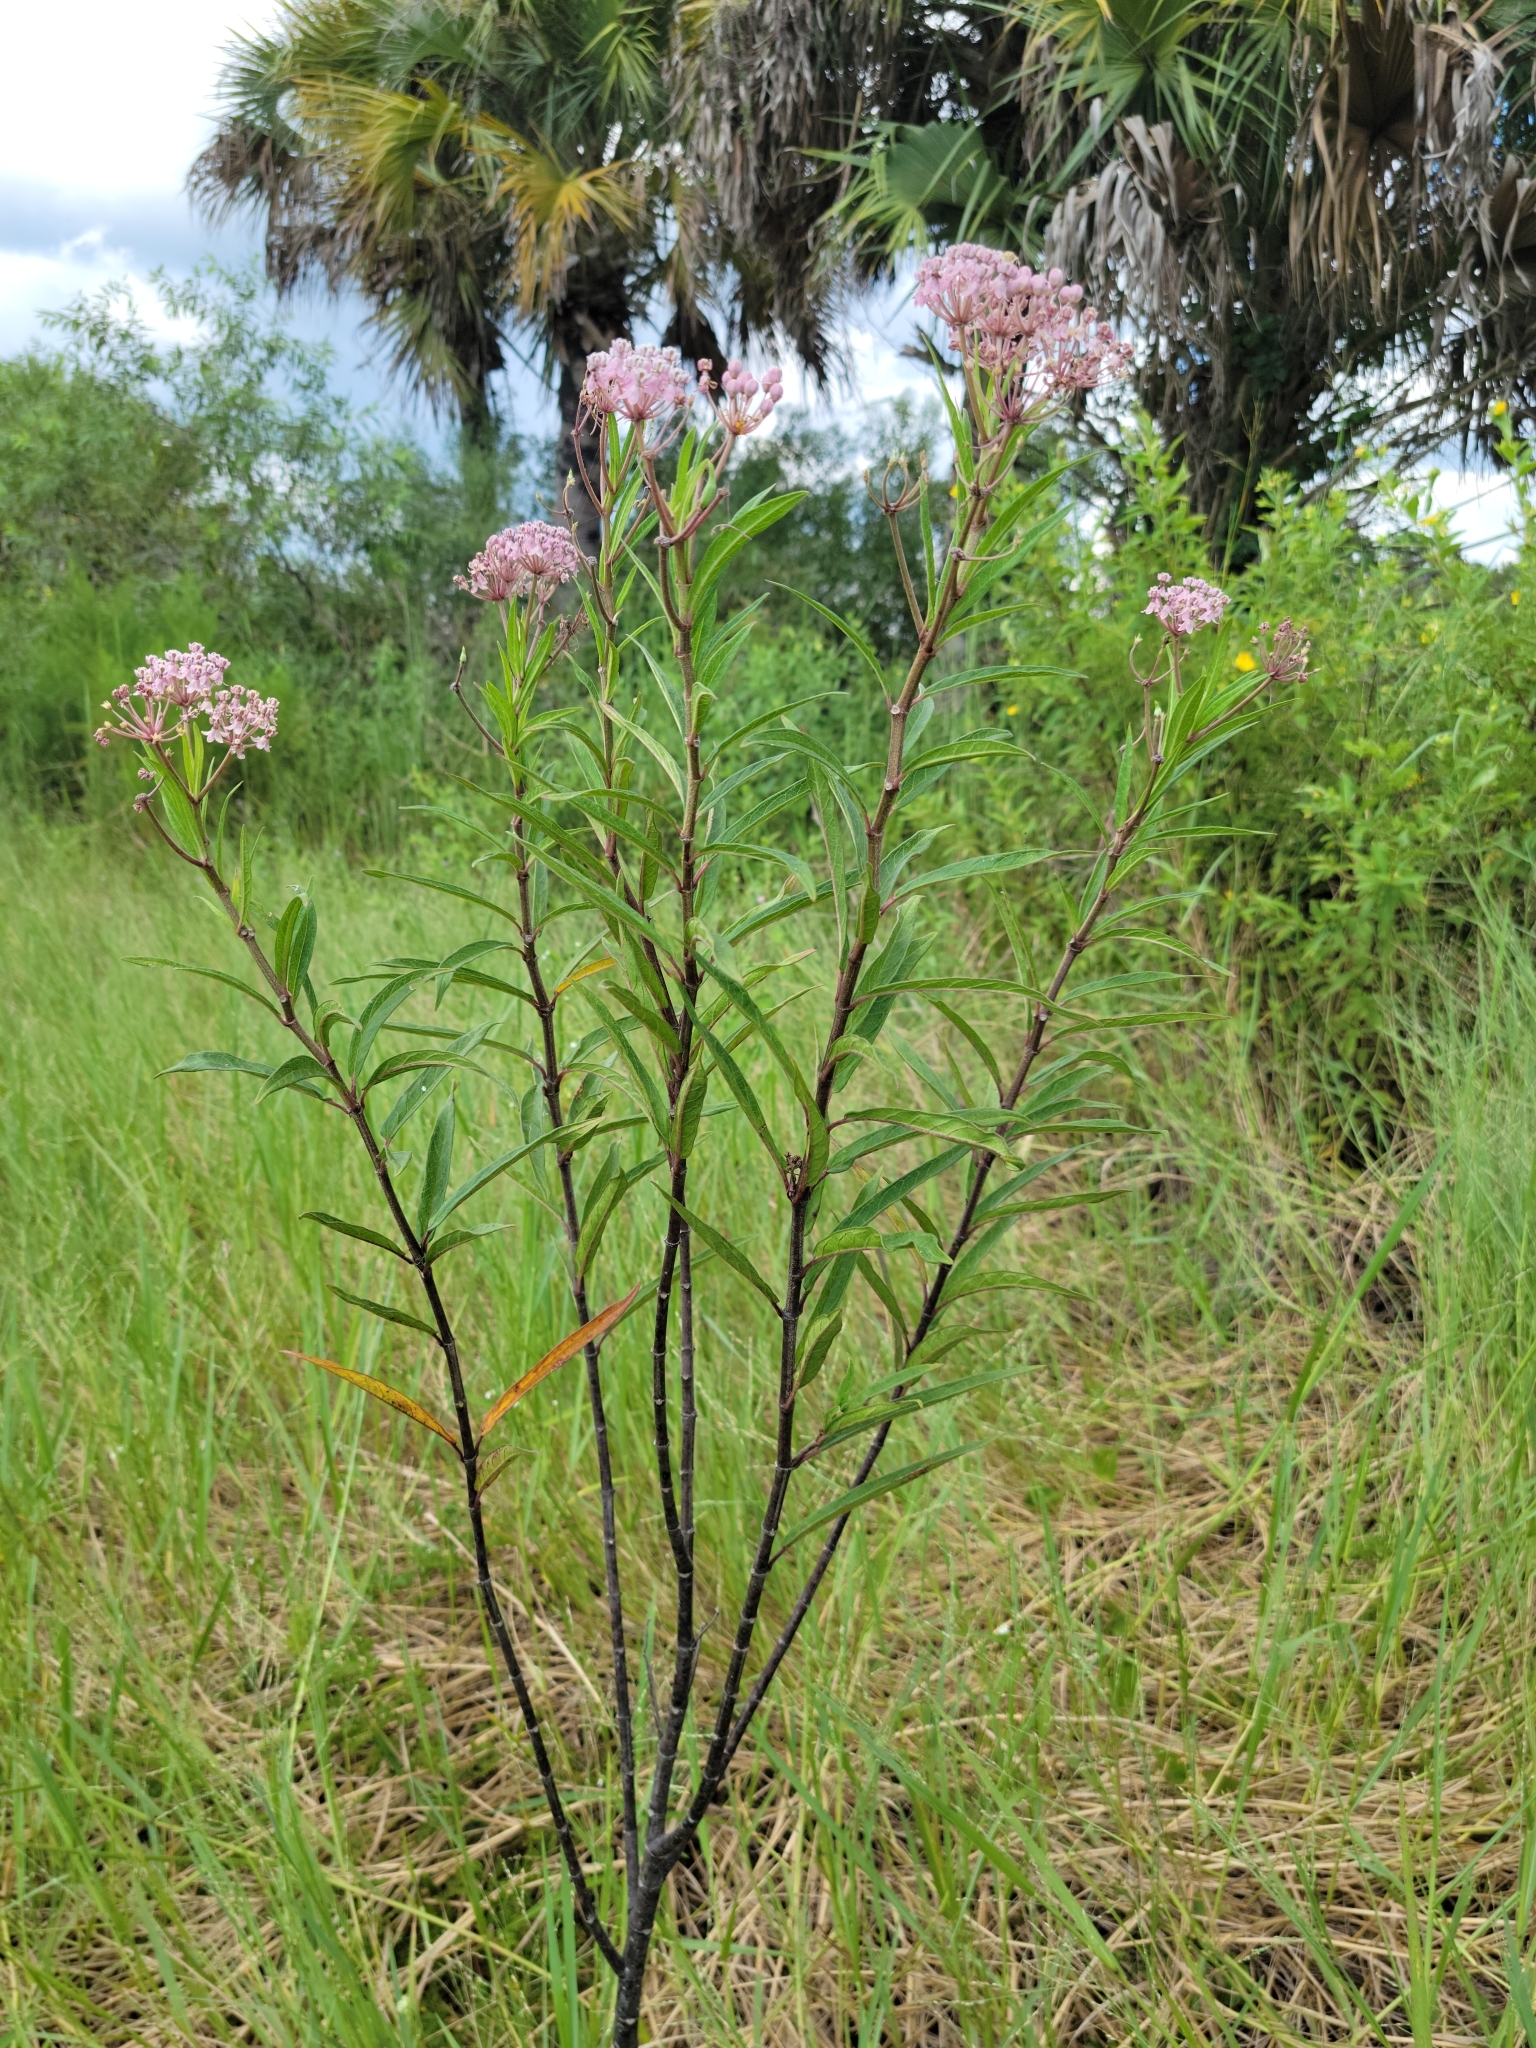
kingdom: Plantae
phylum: Tracheophyta
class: Magnoliopsida
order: Gentianales
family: Apocynaceae
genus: Asclepias
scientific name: Asclepias incarnata
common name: Swamp milkweed
